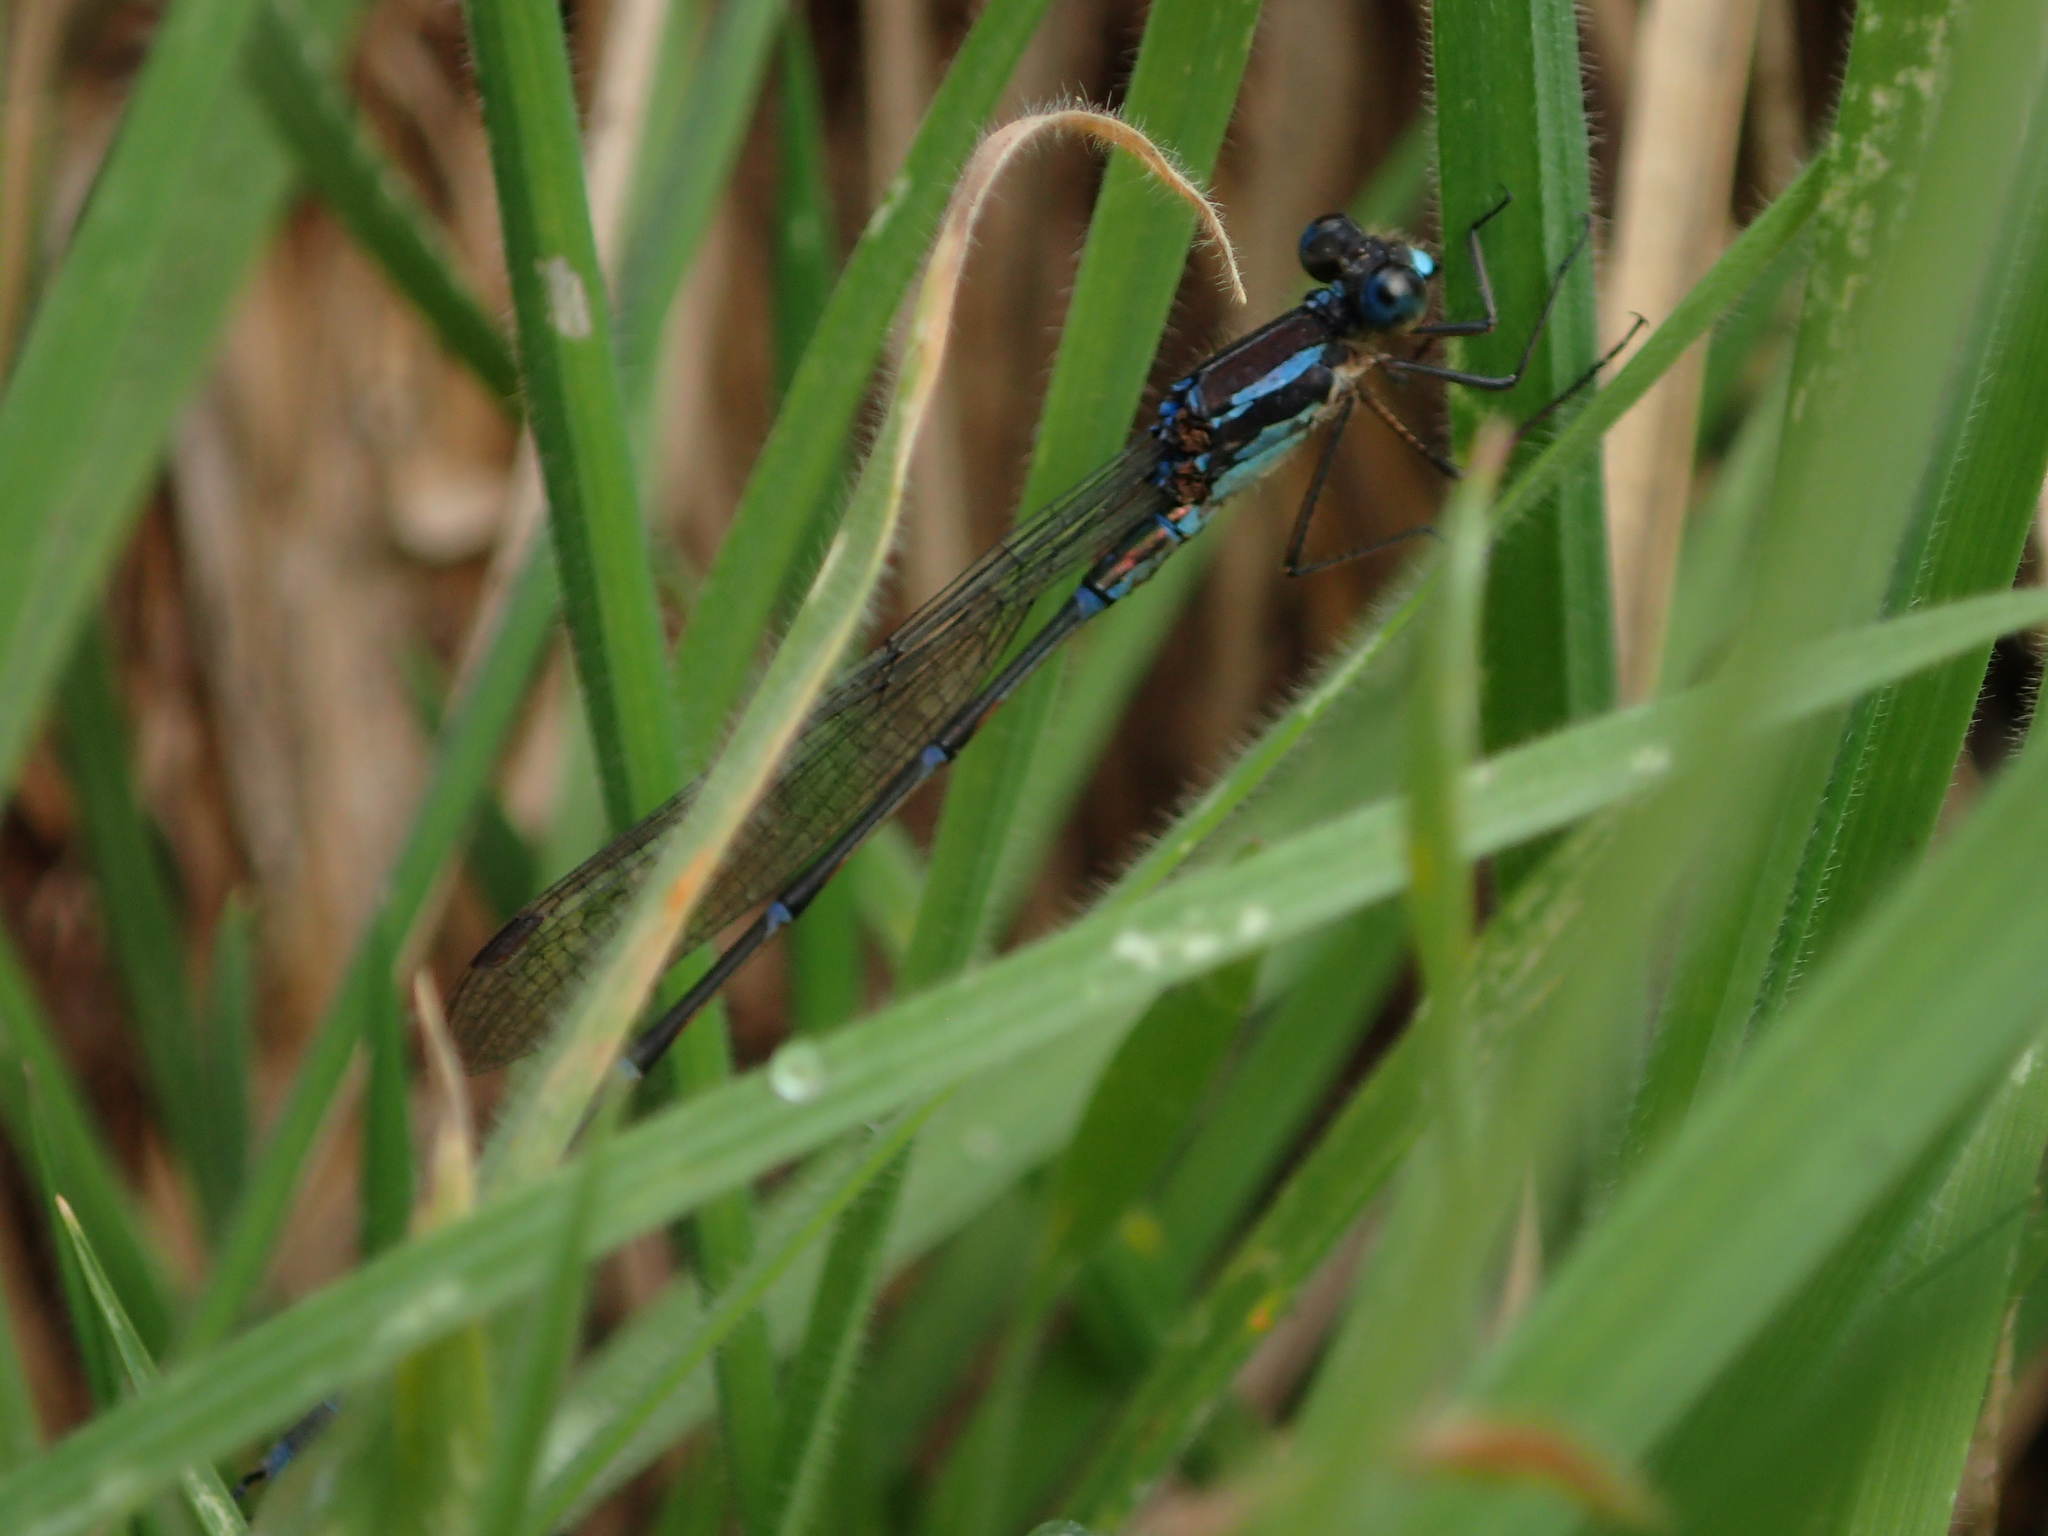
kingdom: Animalia
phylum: Arthropoda
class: Insecta
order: Odonata
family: Lestidae
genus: Austrolestes
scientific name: Austrolestes colensonis
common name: Blue damselfly
